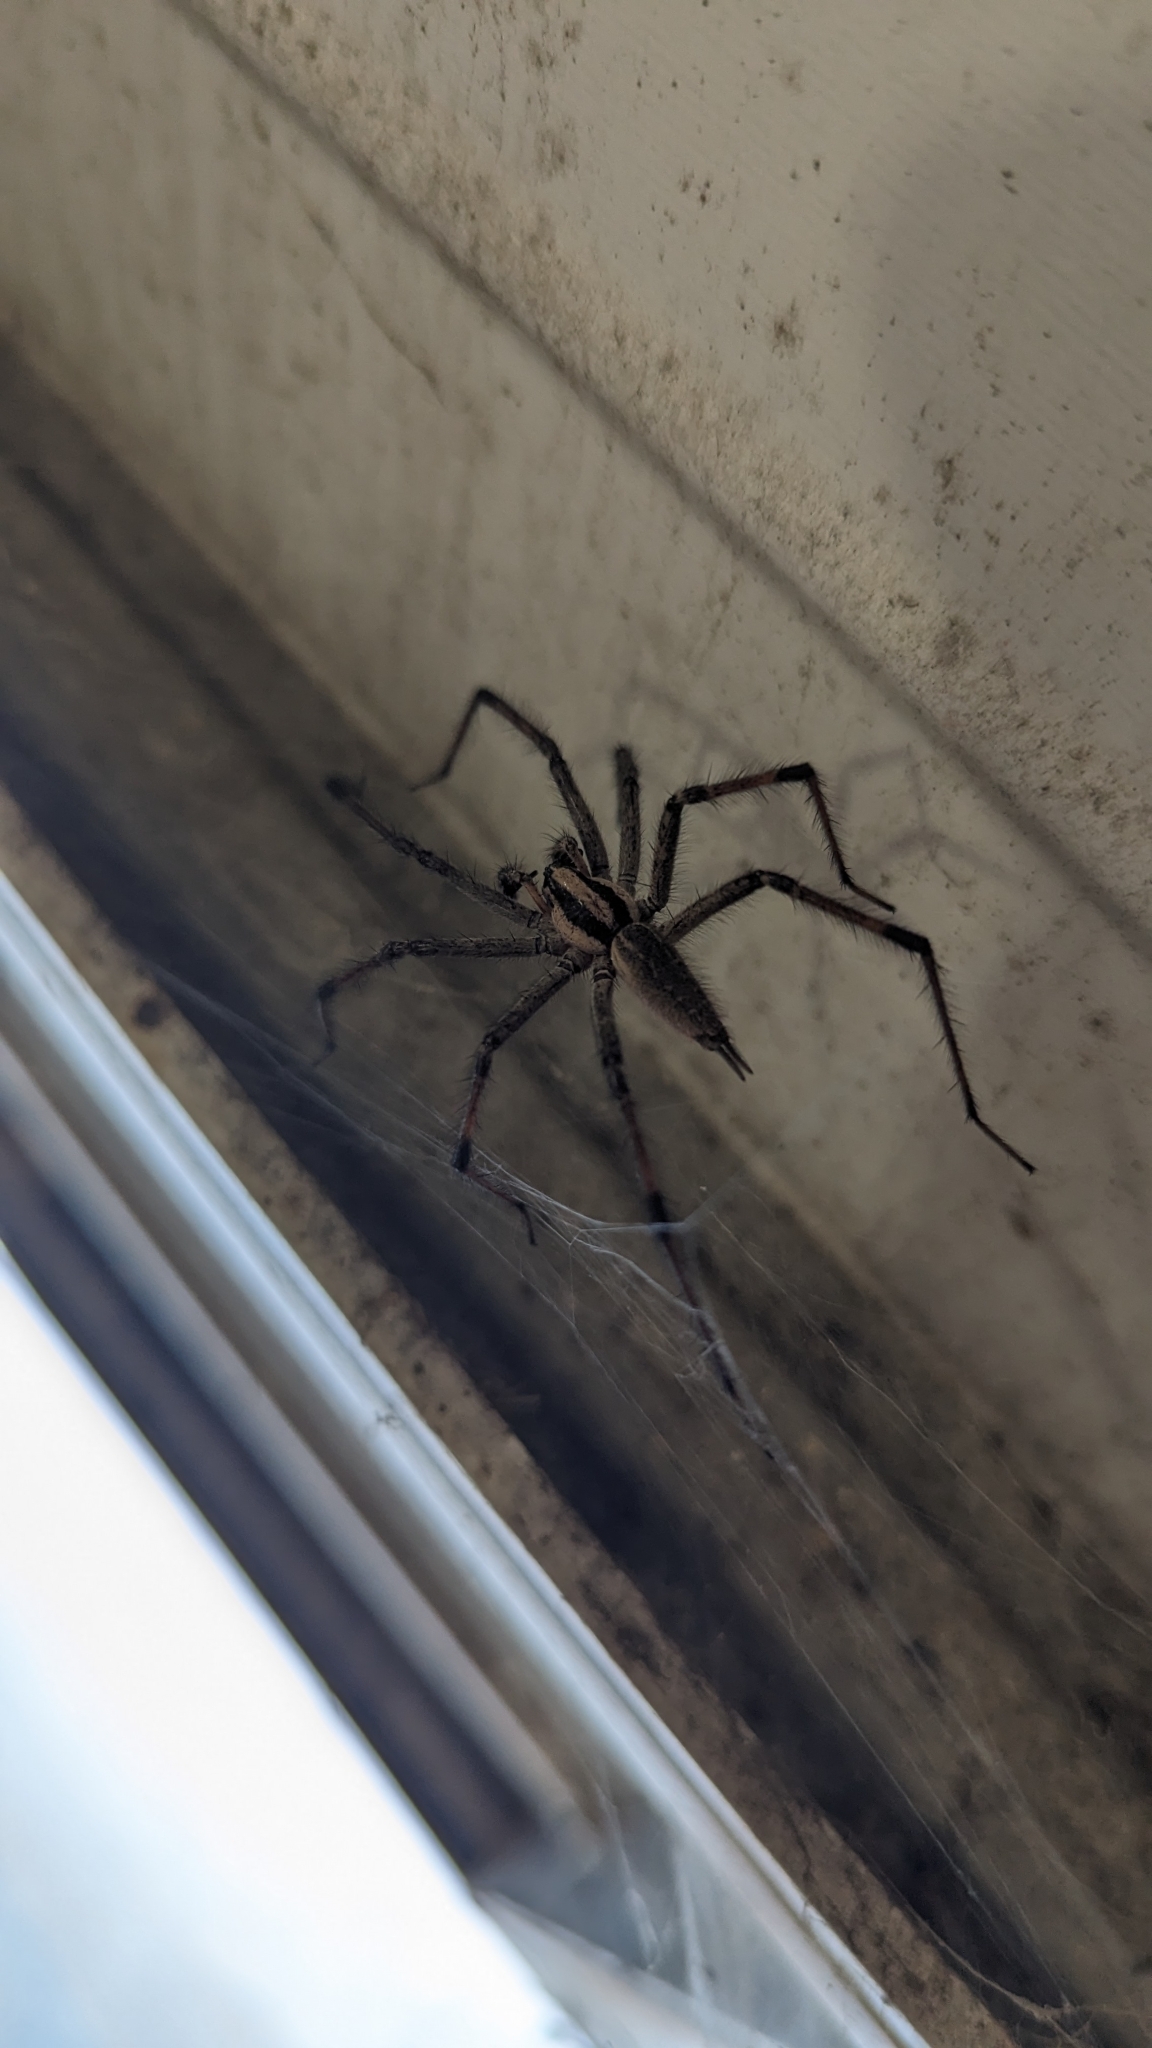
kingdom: Animalia
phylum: Arthropoda
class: Arachnida
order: Araneae
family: Agelenidae
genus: Agelenopsis
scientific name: Agelenopsis
